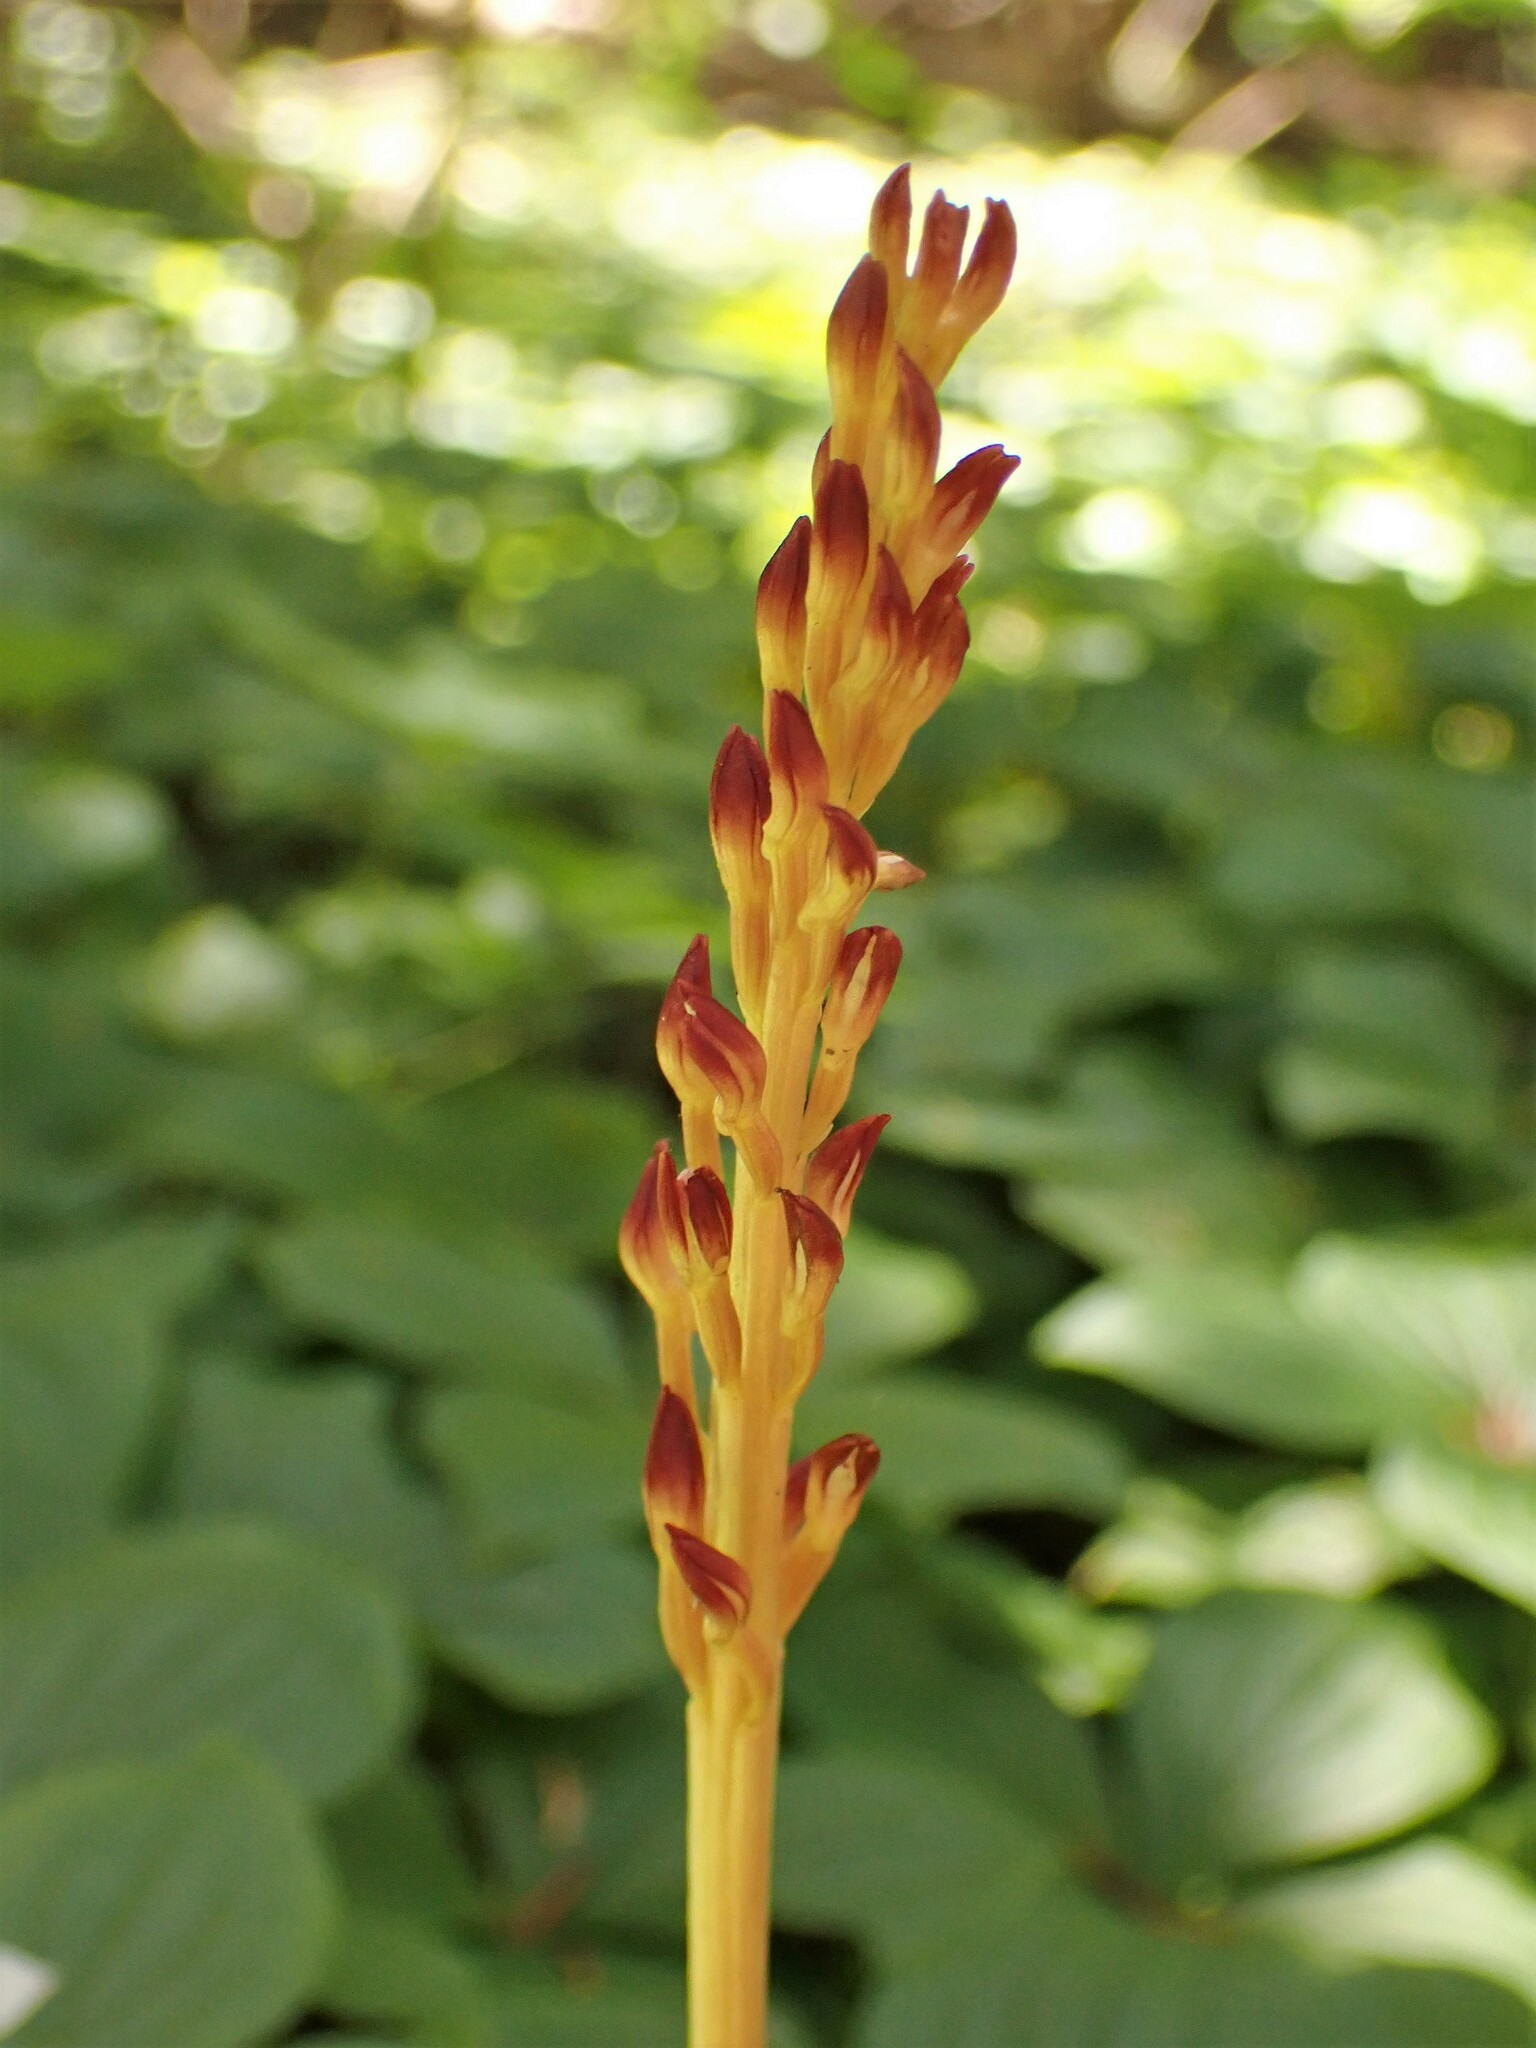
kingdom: Plantae
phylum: Tracheophyta
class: Liliopsida
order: Asparagales
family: Orchidaceae
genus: Corallorhiza
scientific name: Corallorhiza maculata
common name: Spotted coralroot
